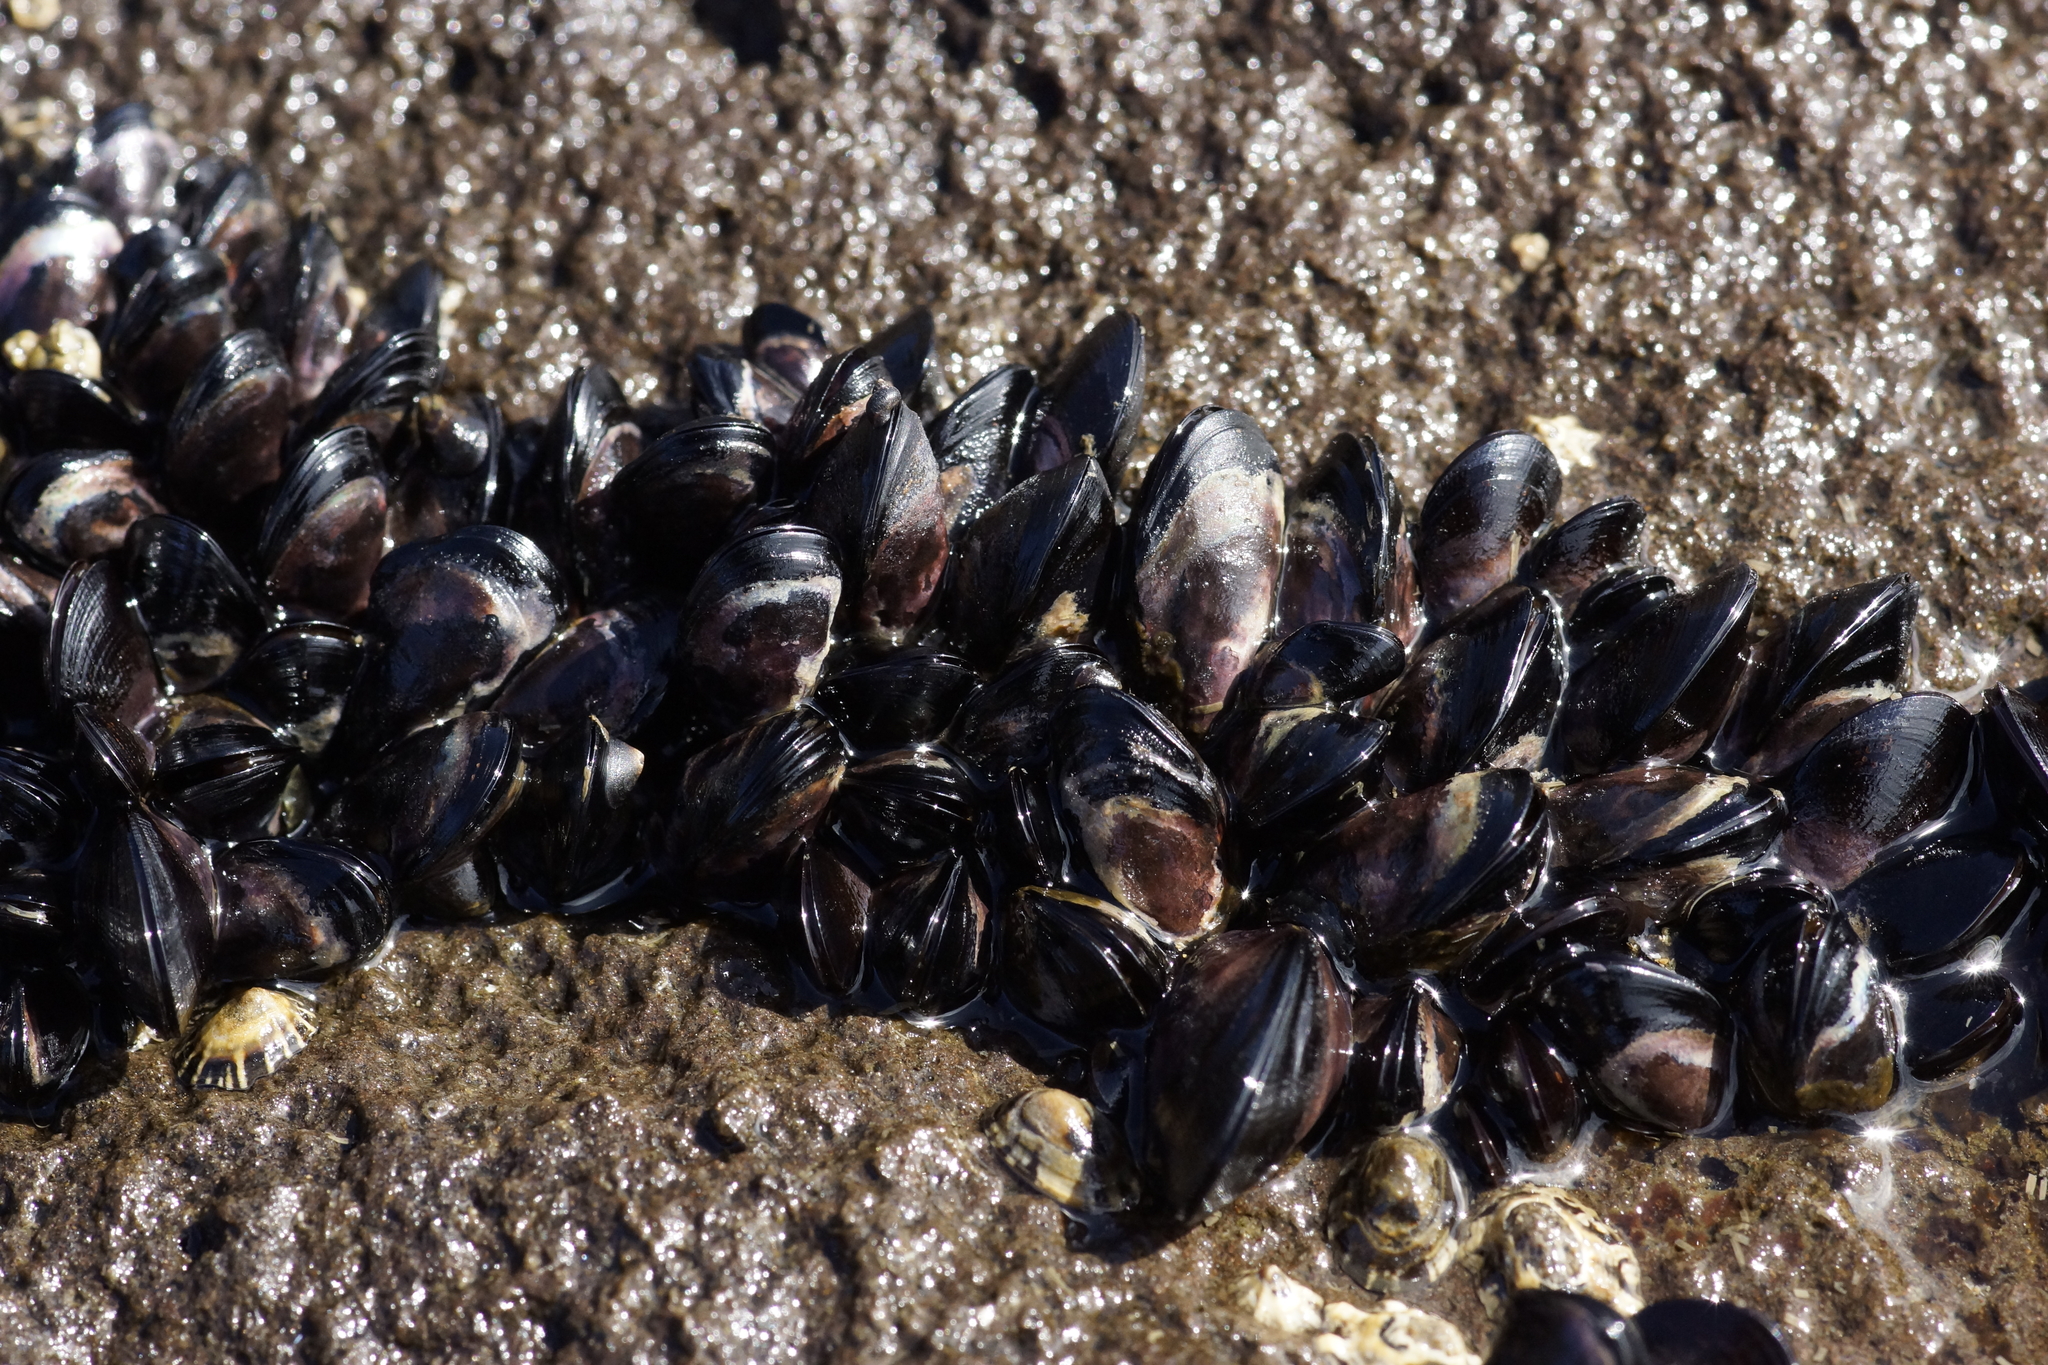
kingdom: Animalia
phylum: Mollusca
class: Bivalvia
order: Mytilida
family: Mytilidae
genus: Brachidontes
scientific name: Brachidontes rostratus
